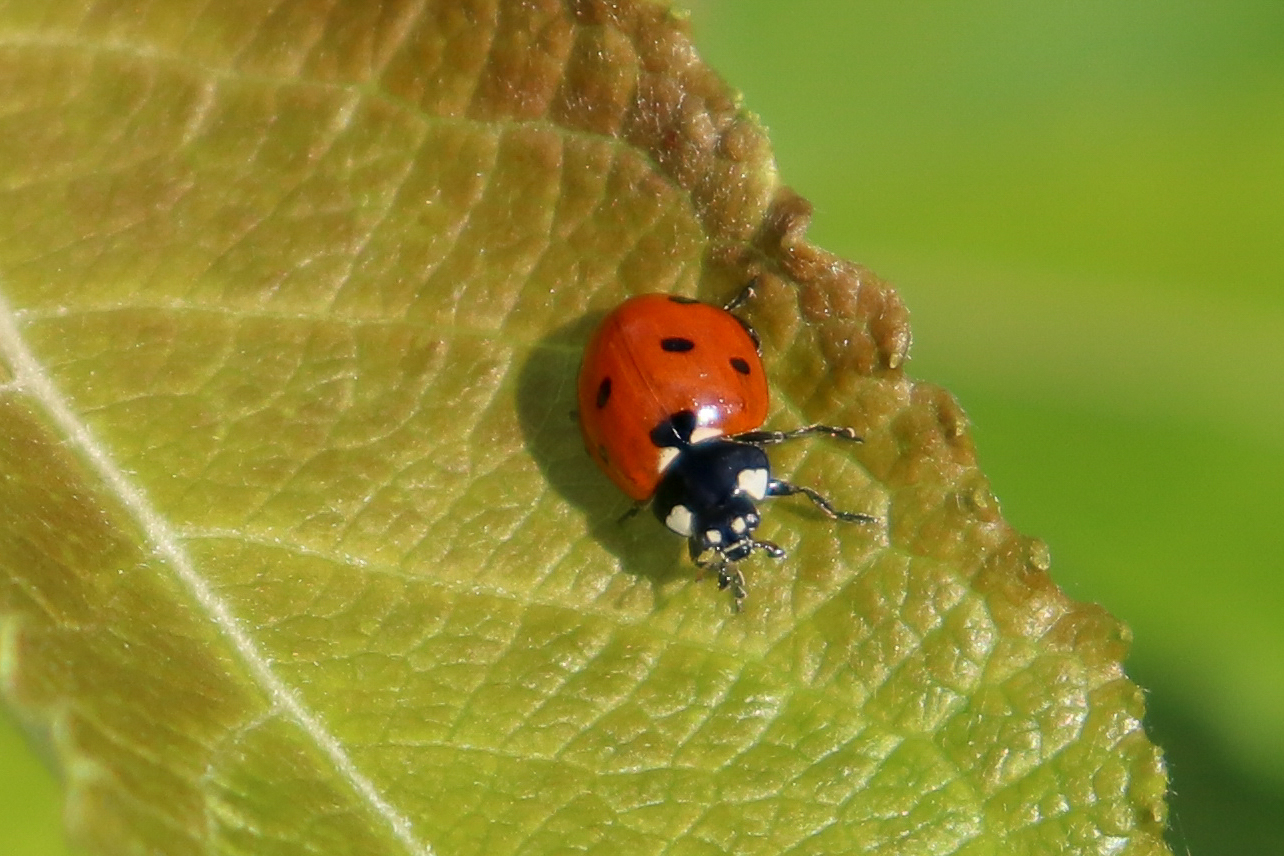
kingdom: Animalia
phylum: Arthropoda
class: Insecta
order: Coleoptera
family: Coccinellidae
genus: Coccinella
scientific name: Coccinella septempunctata
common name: Sevenspotted lady beetle
